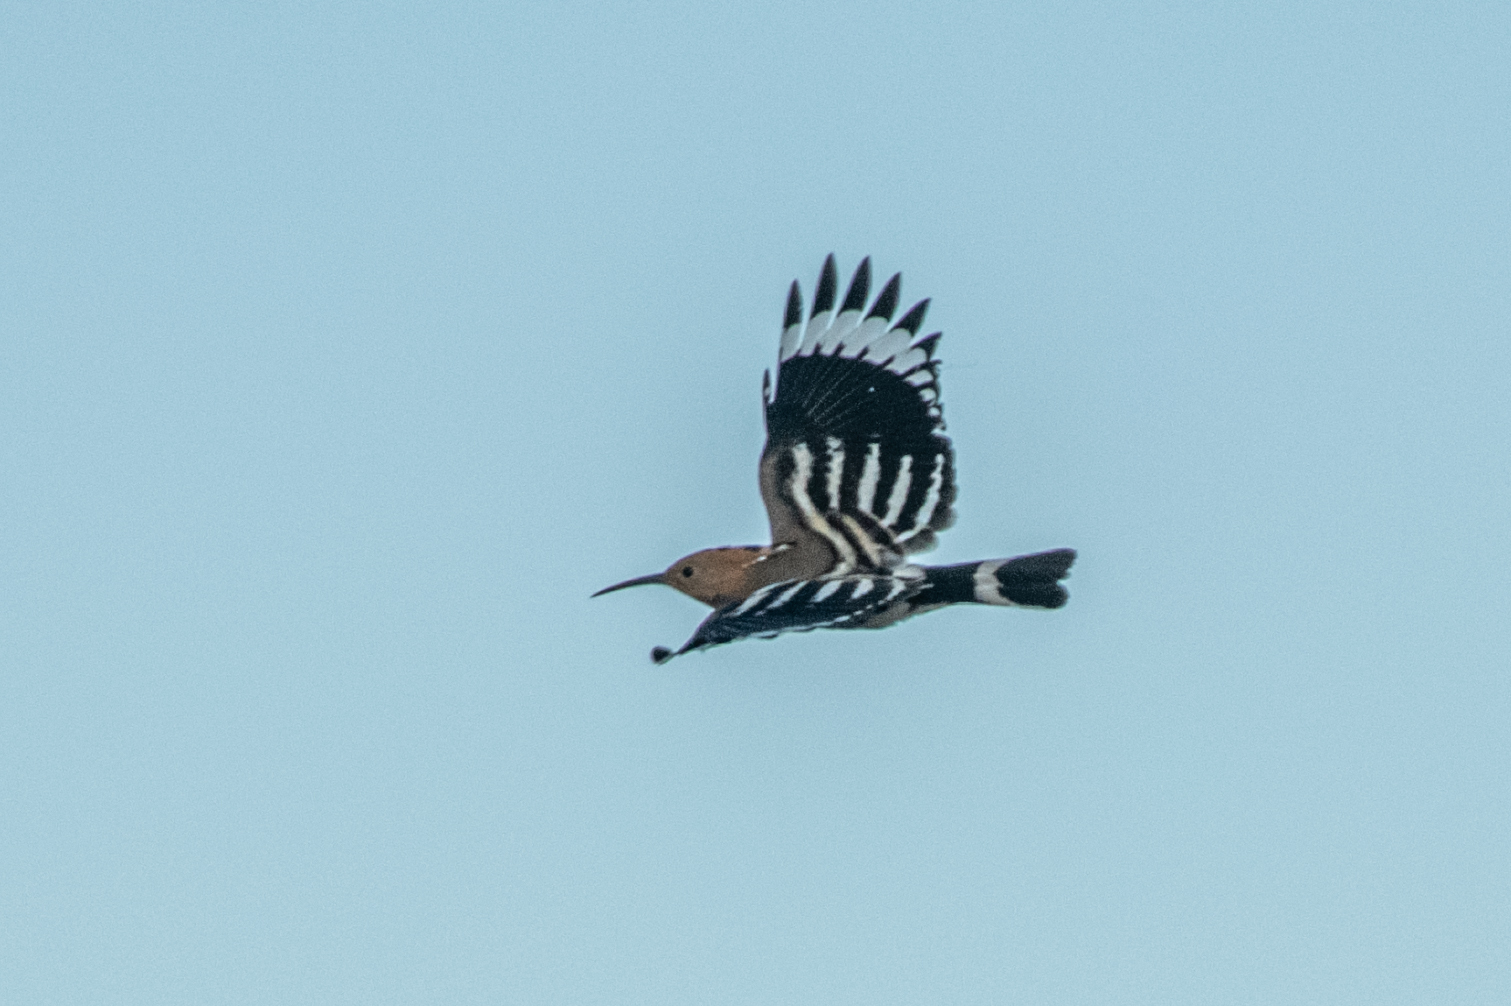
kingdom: Animalia
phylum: Chordata
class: Aves
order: Bucerotiformes
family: Upupidae
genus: Upupa
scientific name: Upupa epops
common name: Eurasian hoopoe
